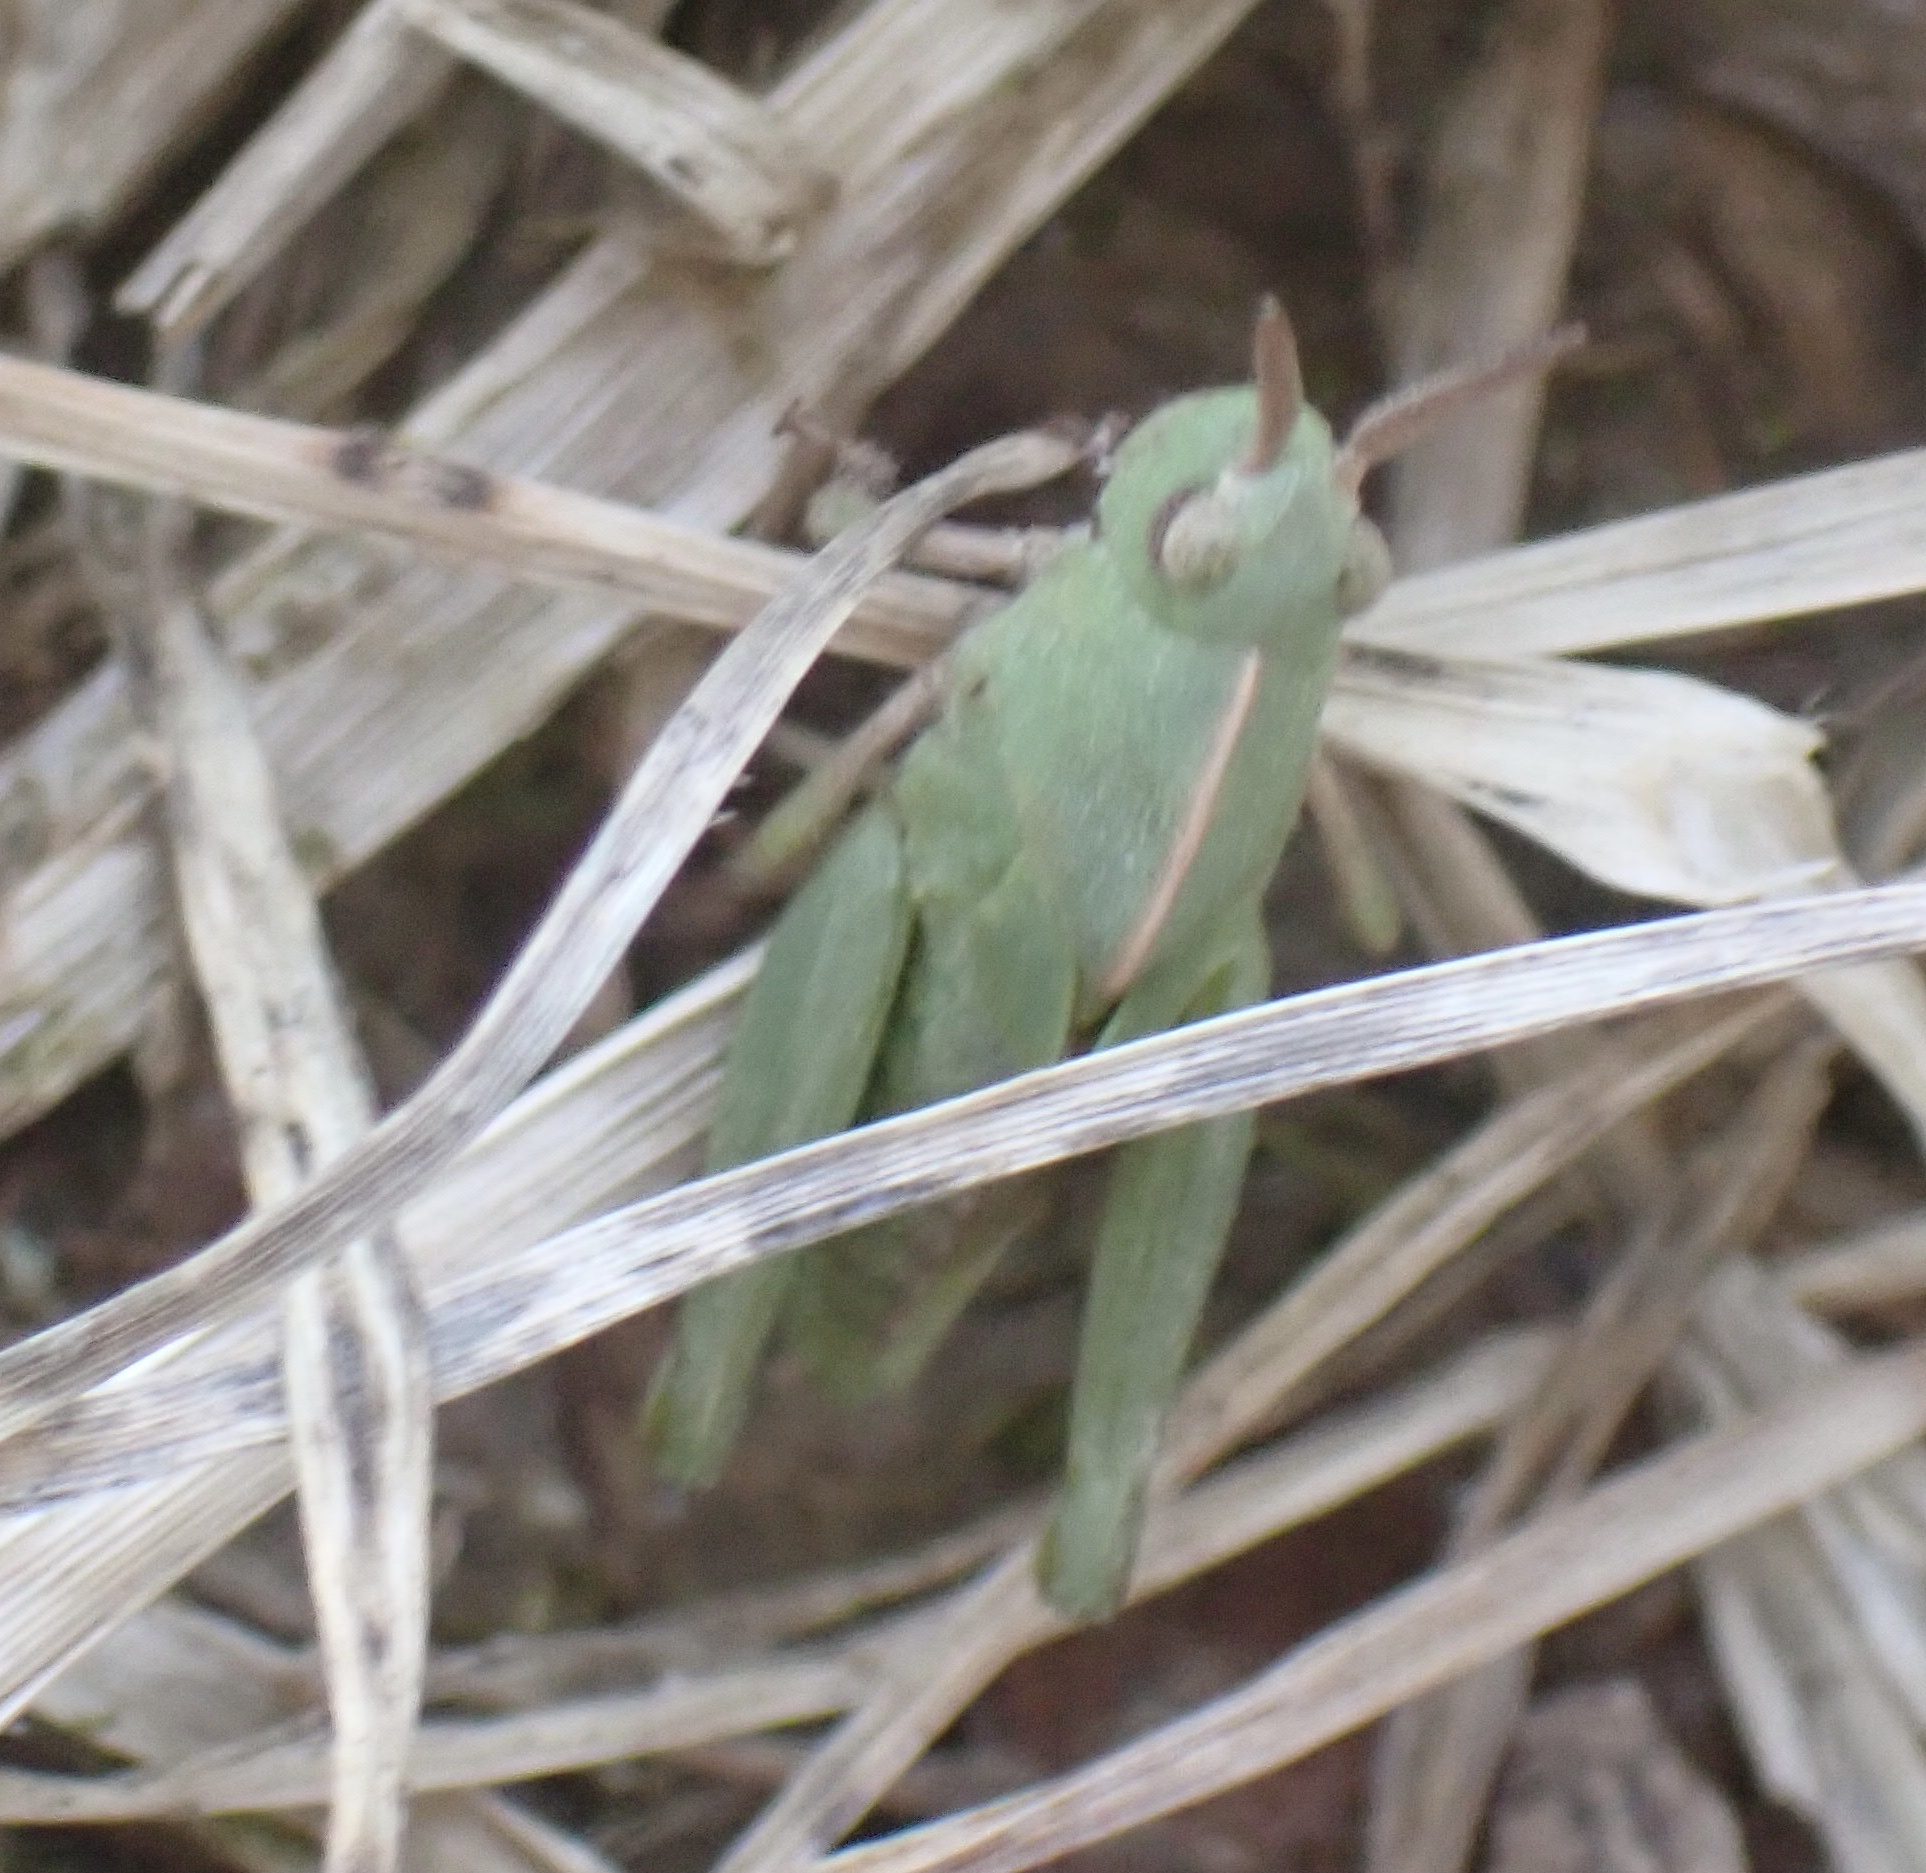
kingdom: Animalia
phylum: Arthropoda
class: Insecta
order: Orthoptera
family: Acrididae
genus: Chortophaga
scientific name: Chortophaga viridifasciata
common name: Green-striped grasshopper
